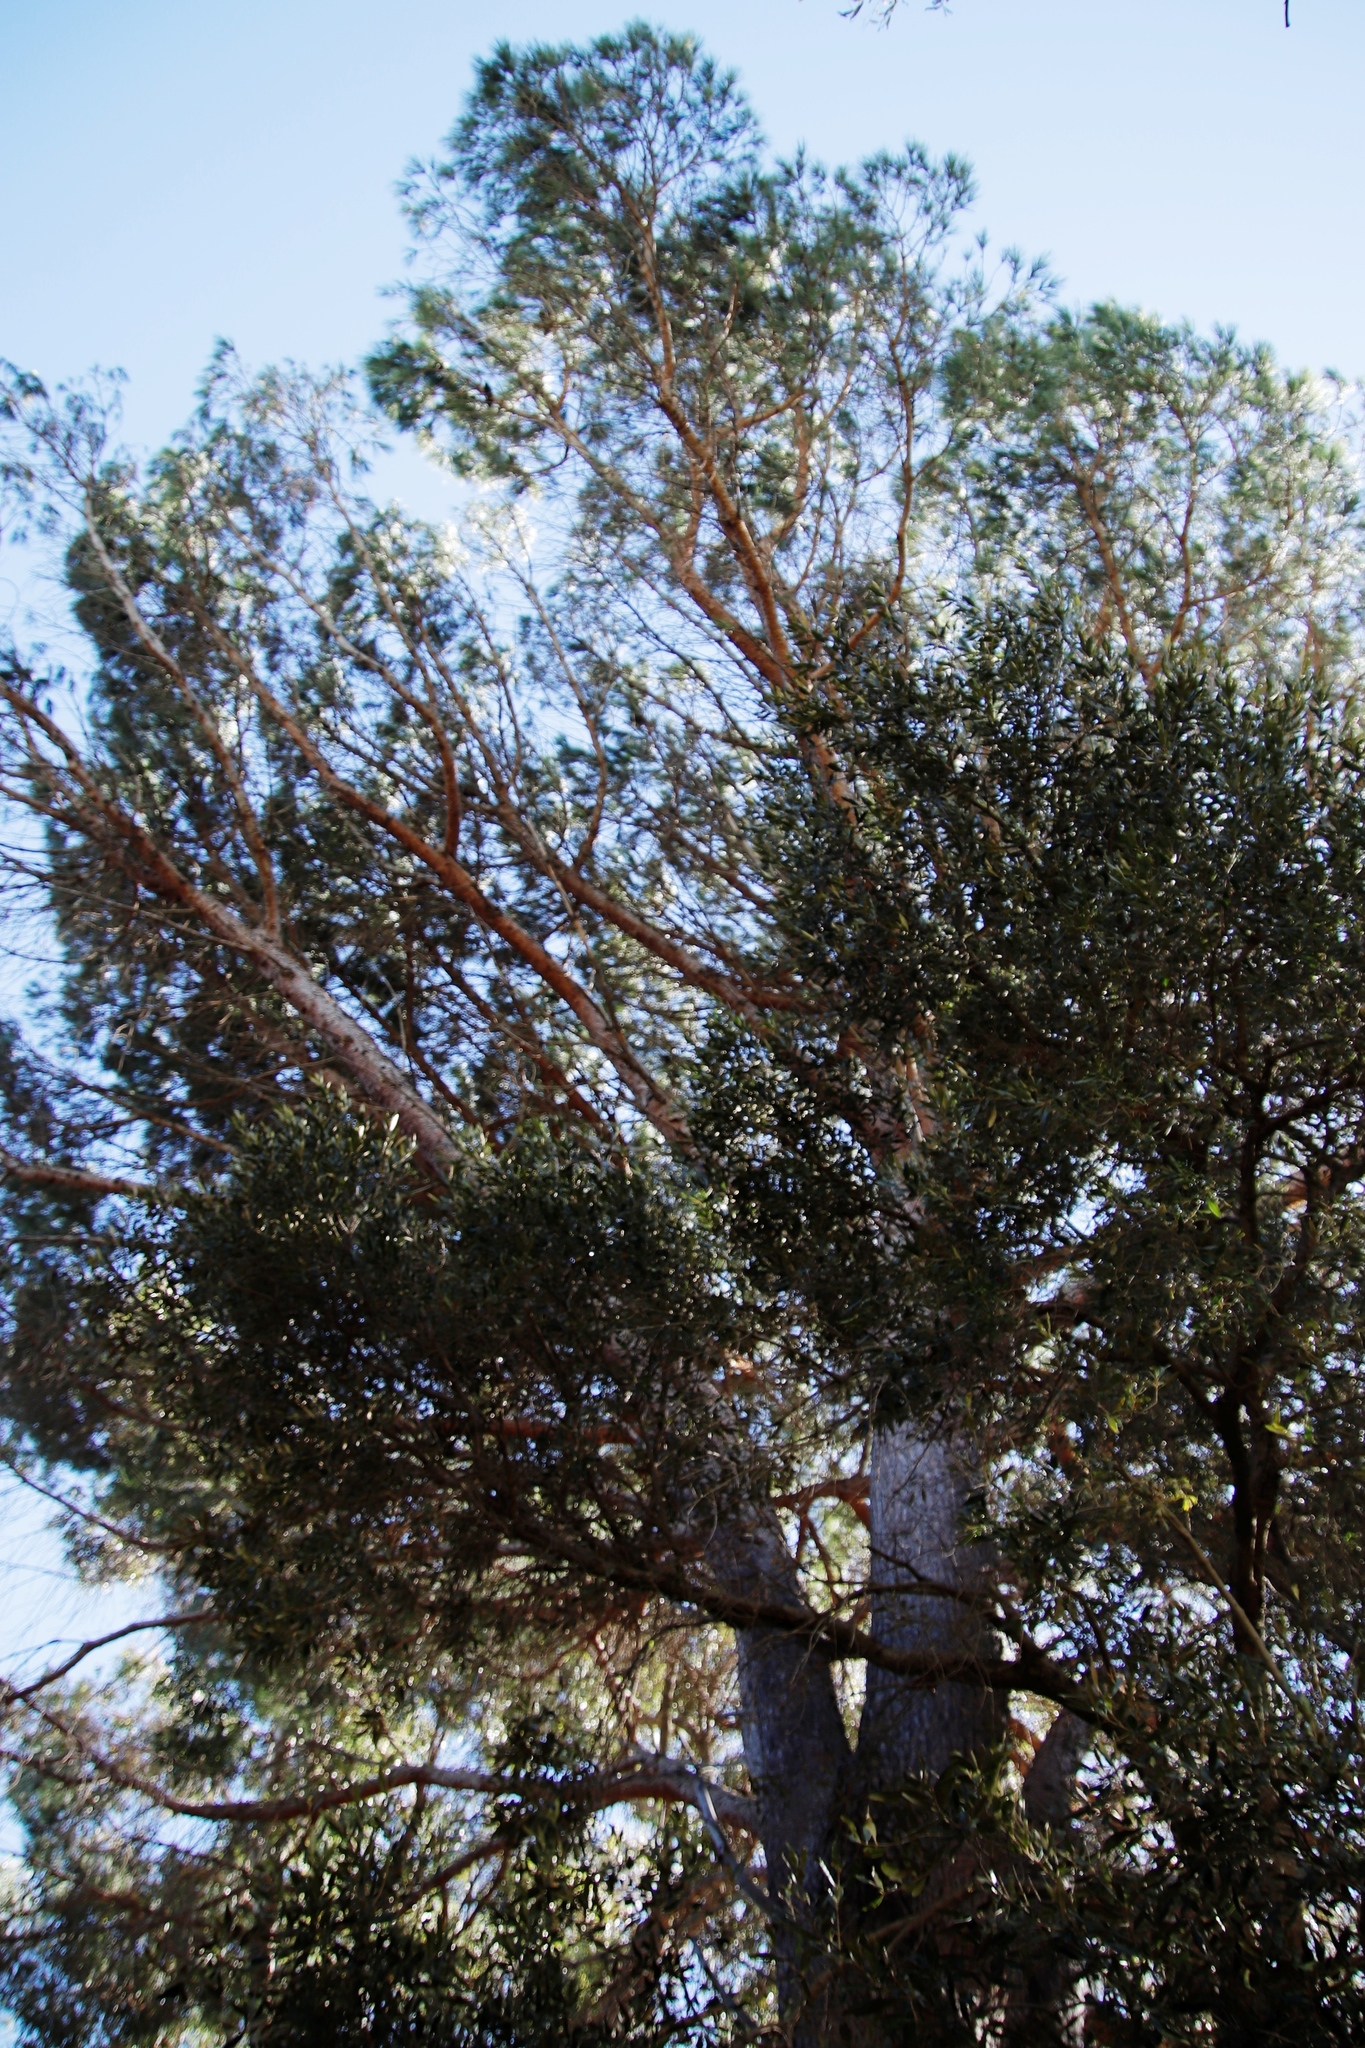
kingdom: Plantae
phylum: Tracheophyta
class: Pinopsida
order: Pinales
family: Pinaceae
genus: Pinus
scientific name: Pinus pinaster
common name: Maritime pine
